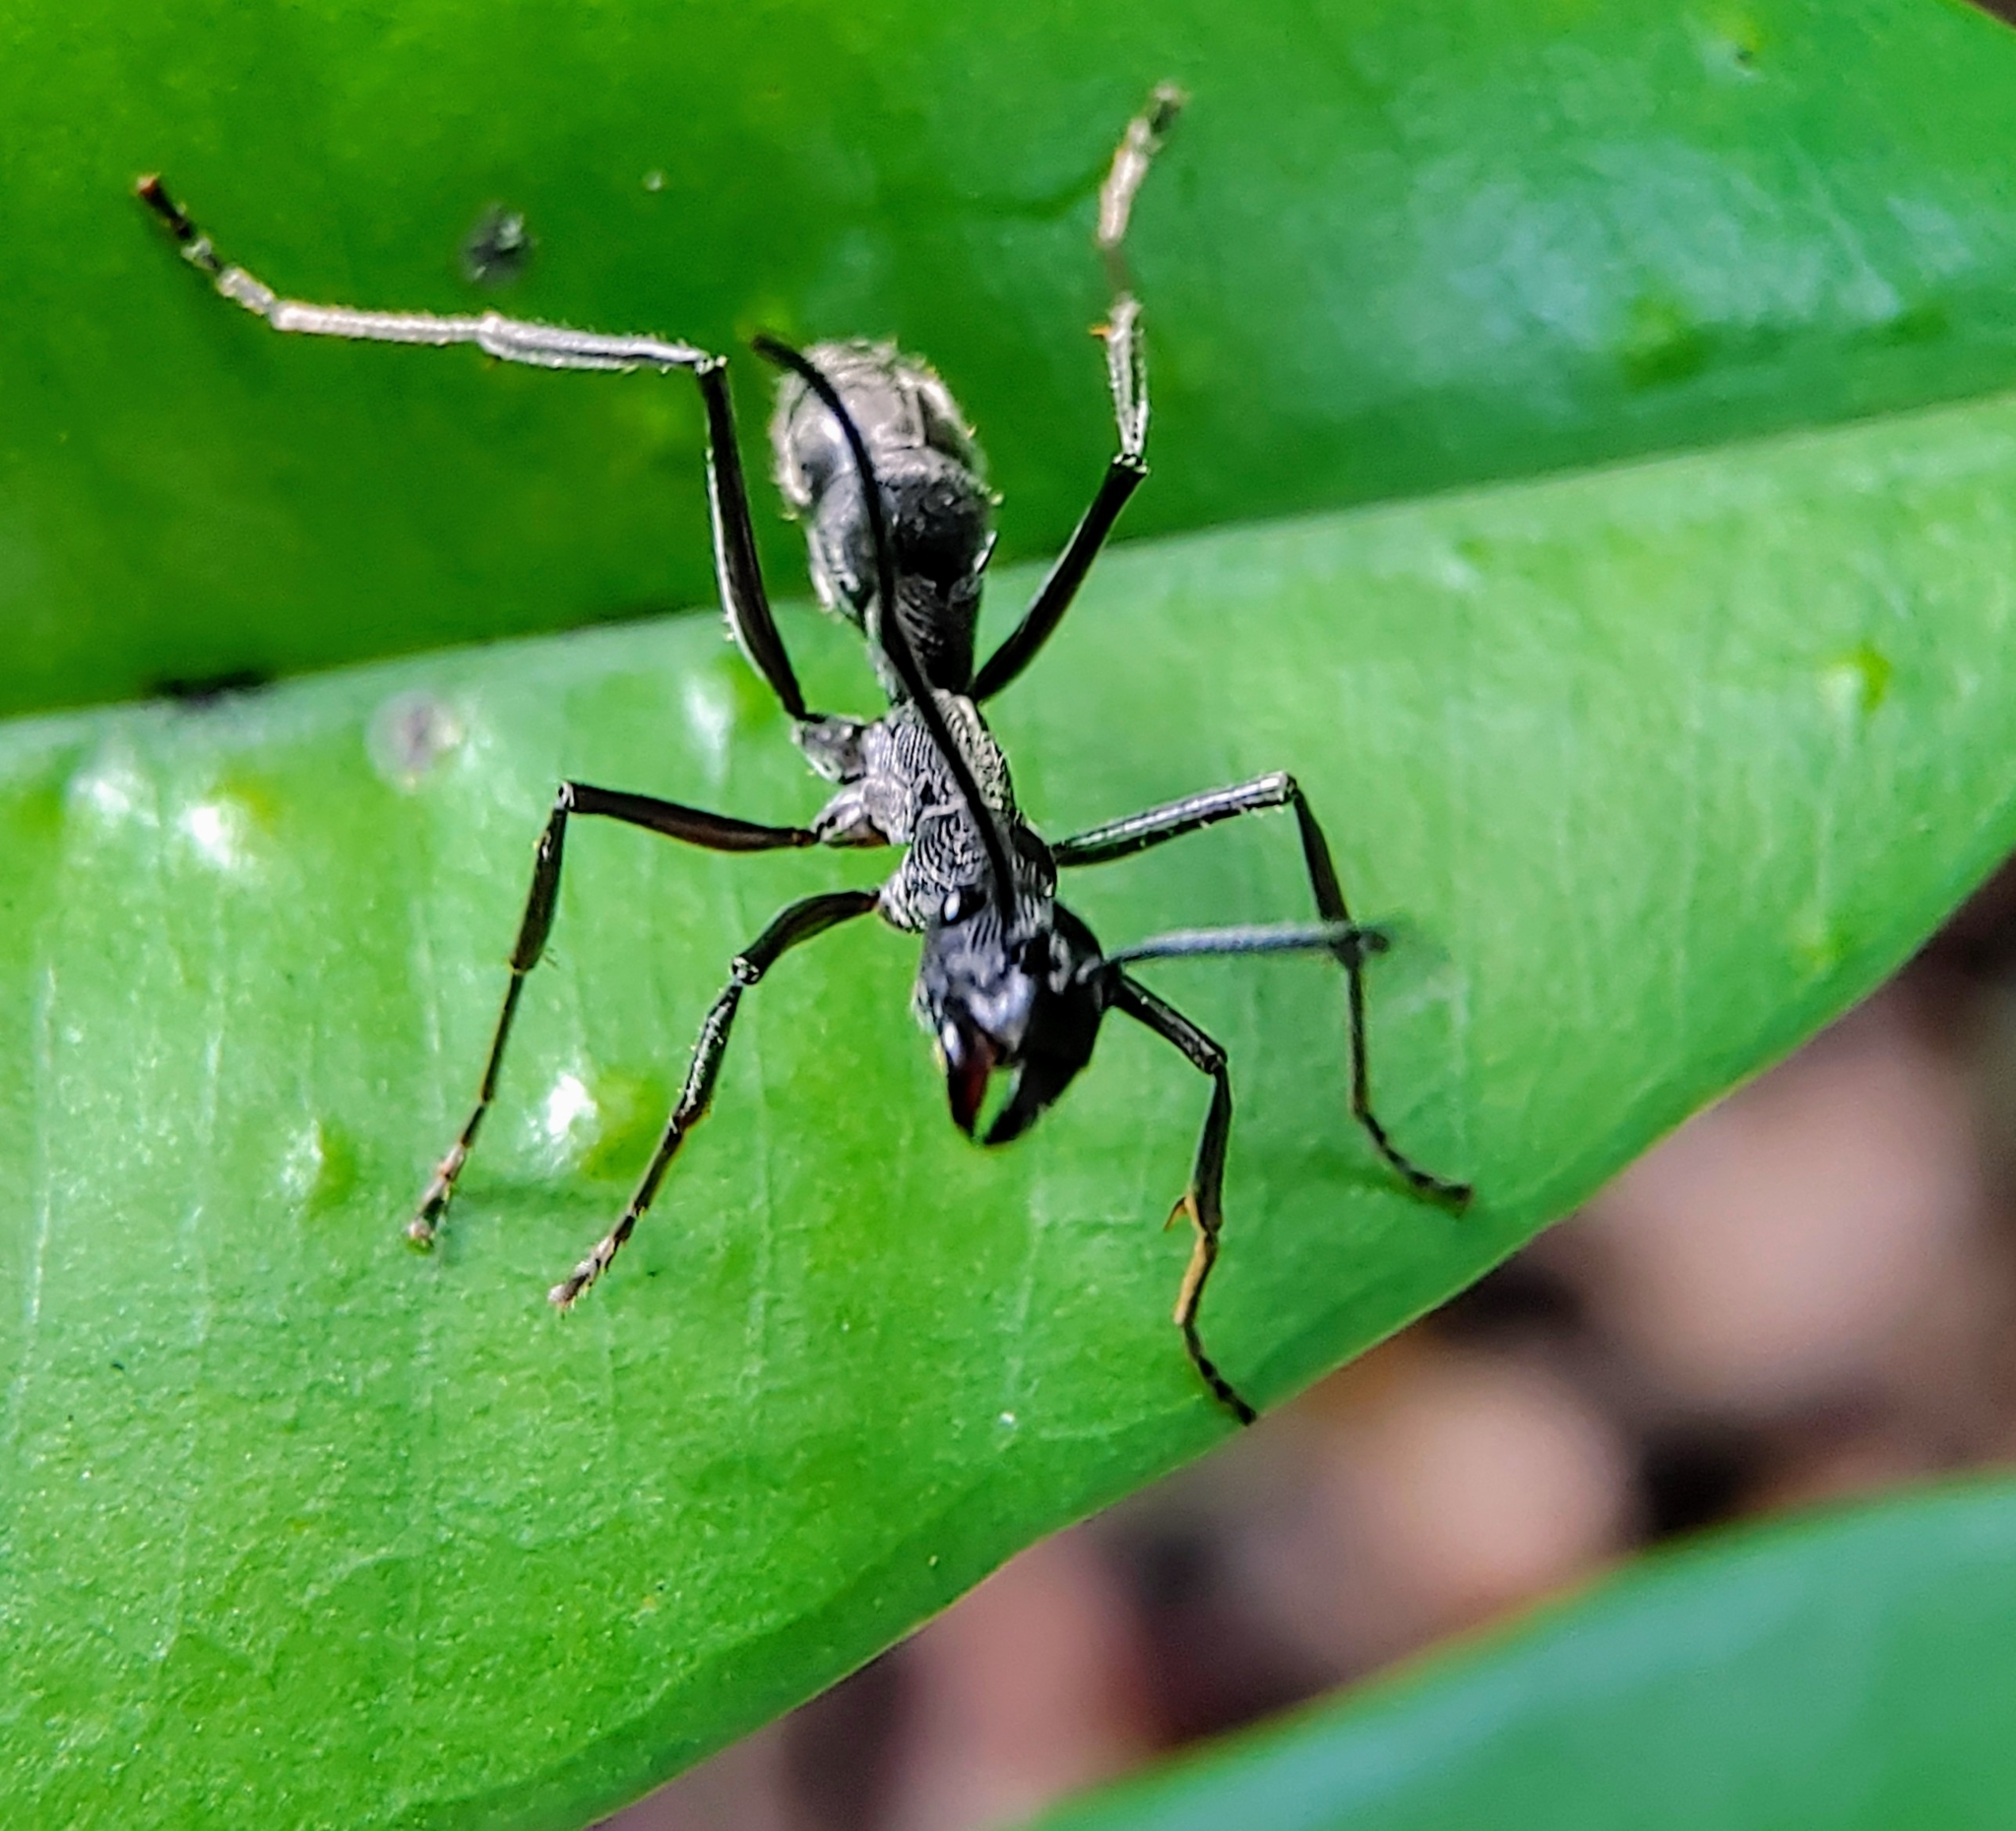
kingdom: Animalia
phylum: Arthropoda
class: Insecta
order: Hymenoptera
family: Formicidae
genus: Diacamma
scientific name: Diacamma geometricum
